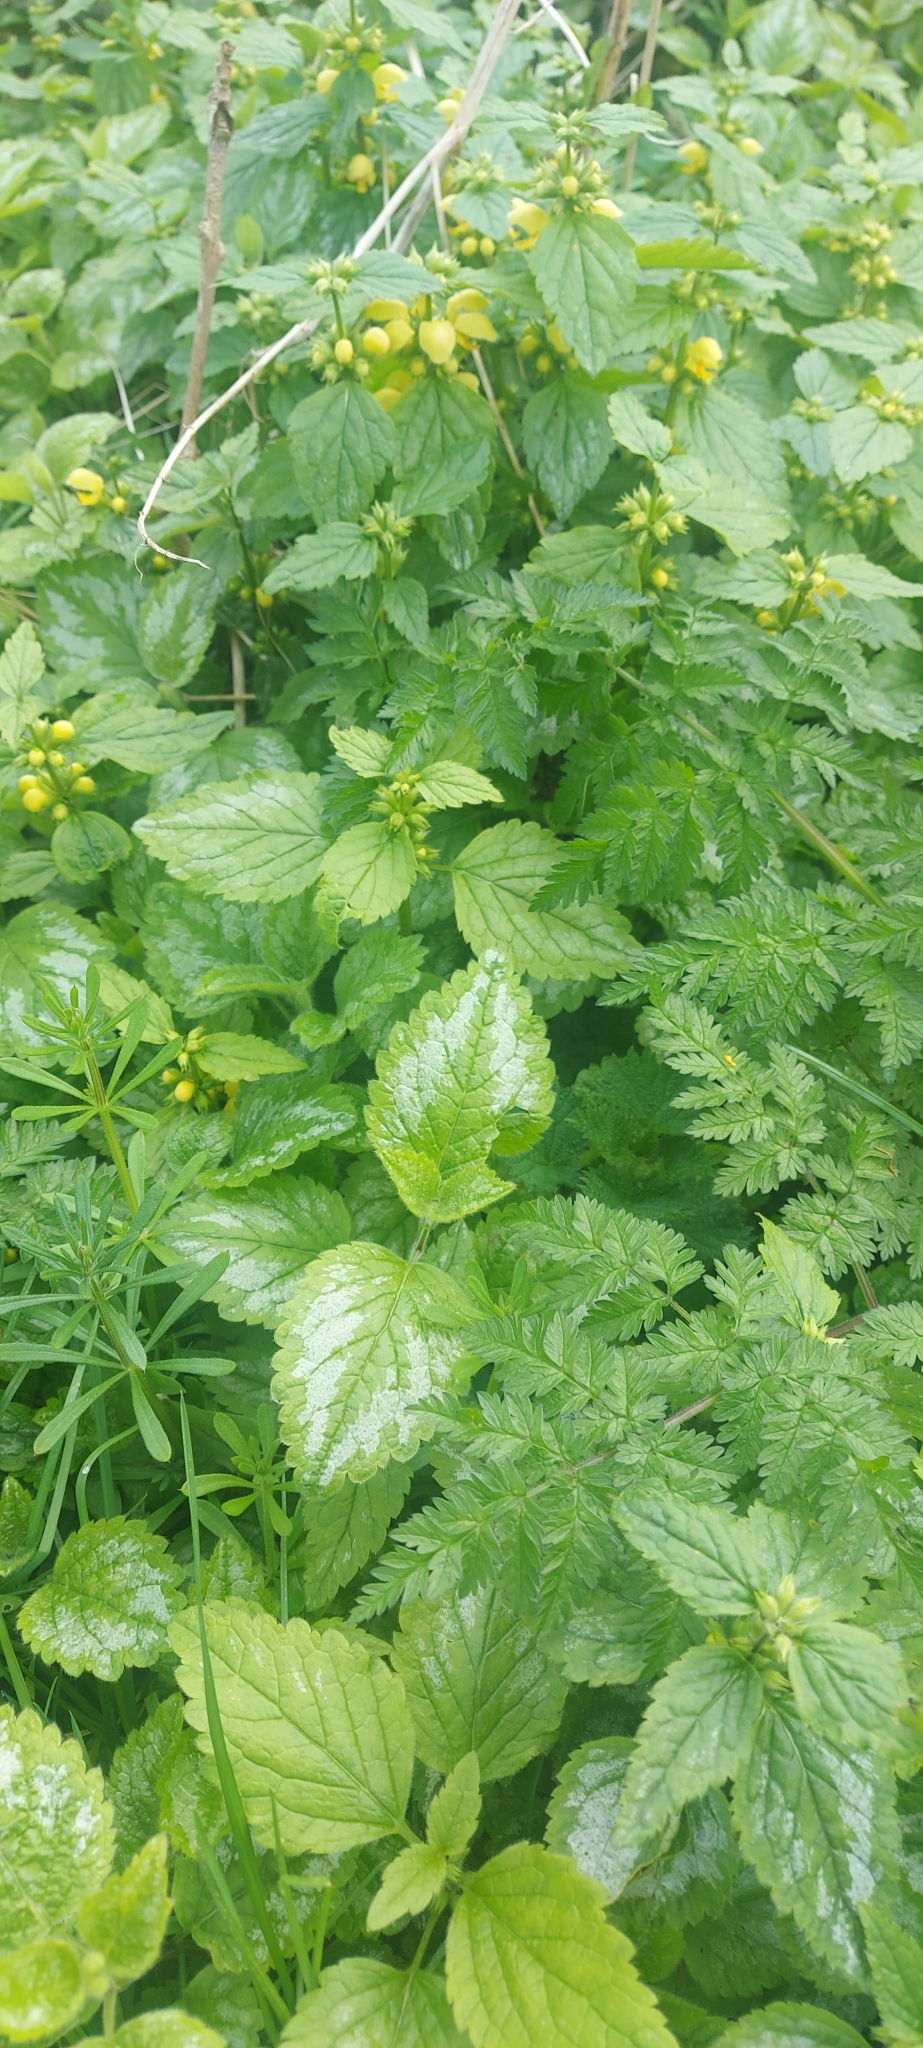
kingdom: Plantae
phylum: Tracheophyta
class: Magnoliopsida
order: Lamiales
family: Lamiaceae
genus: Lamium
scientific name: Lamium galeobdolon
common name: Yellow archangel
